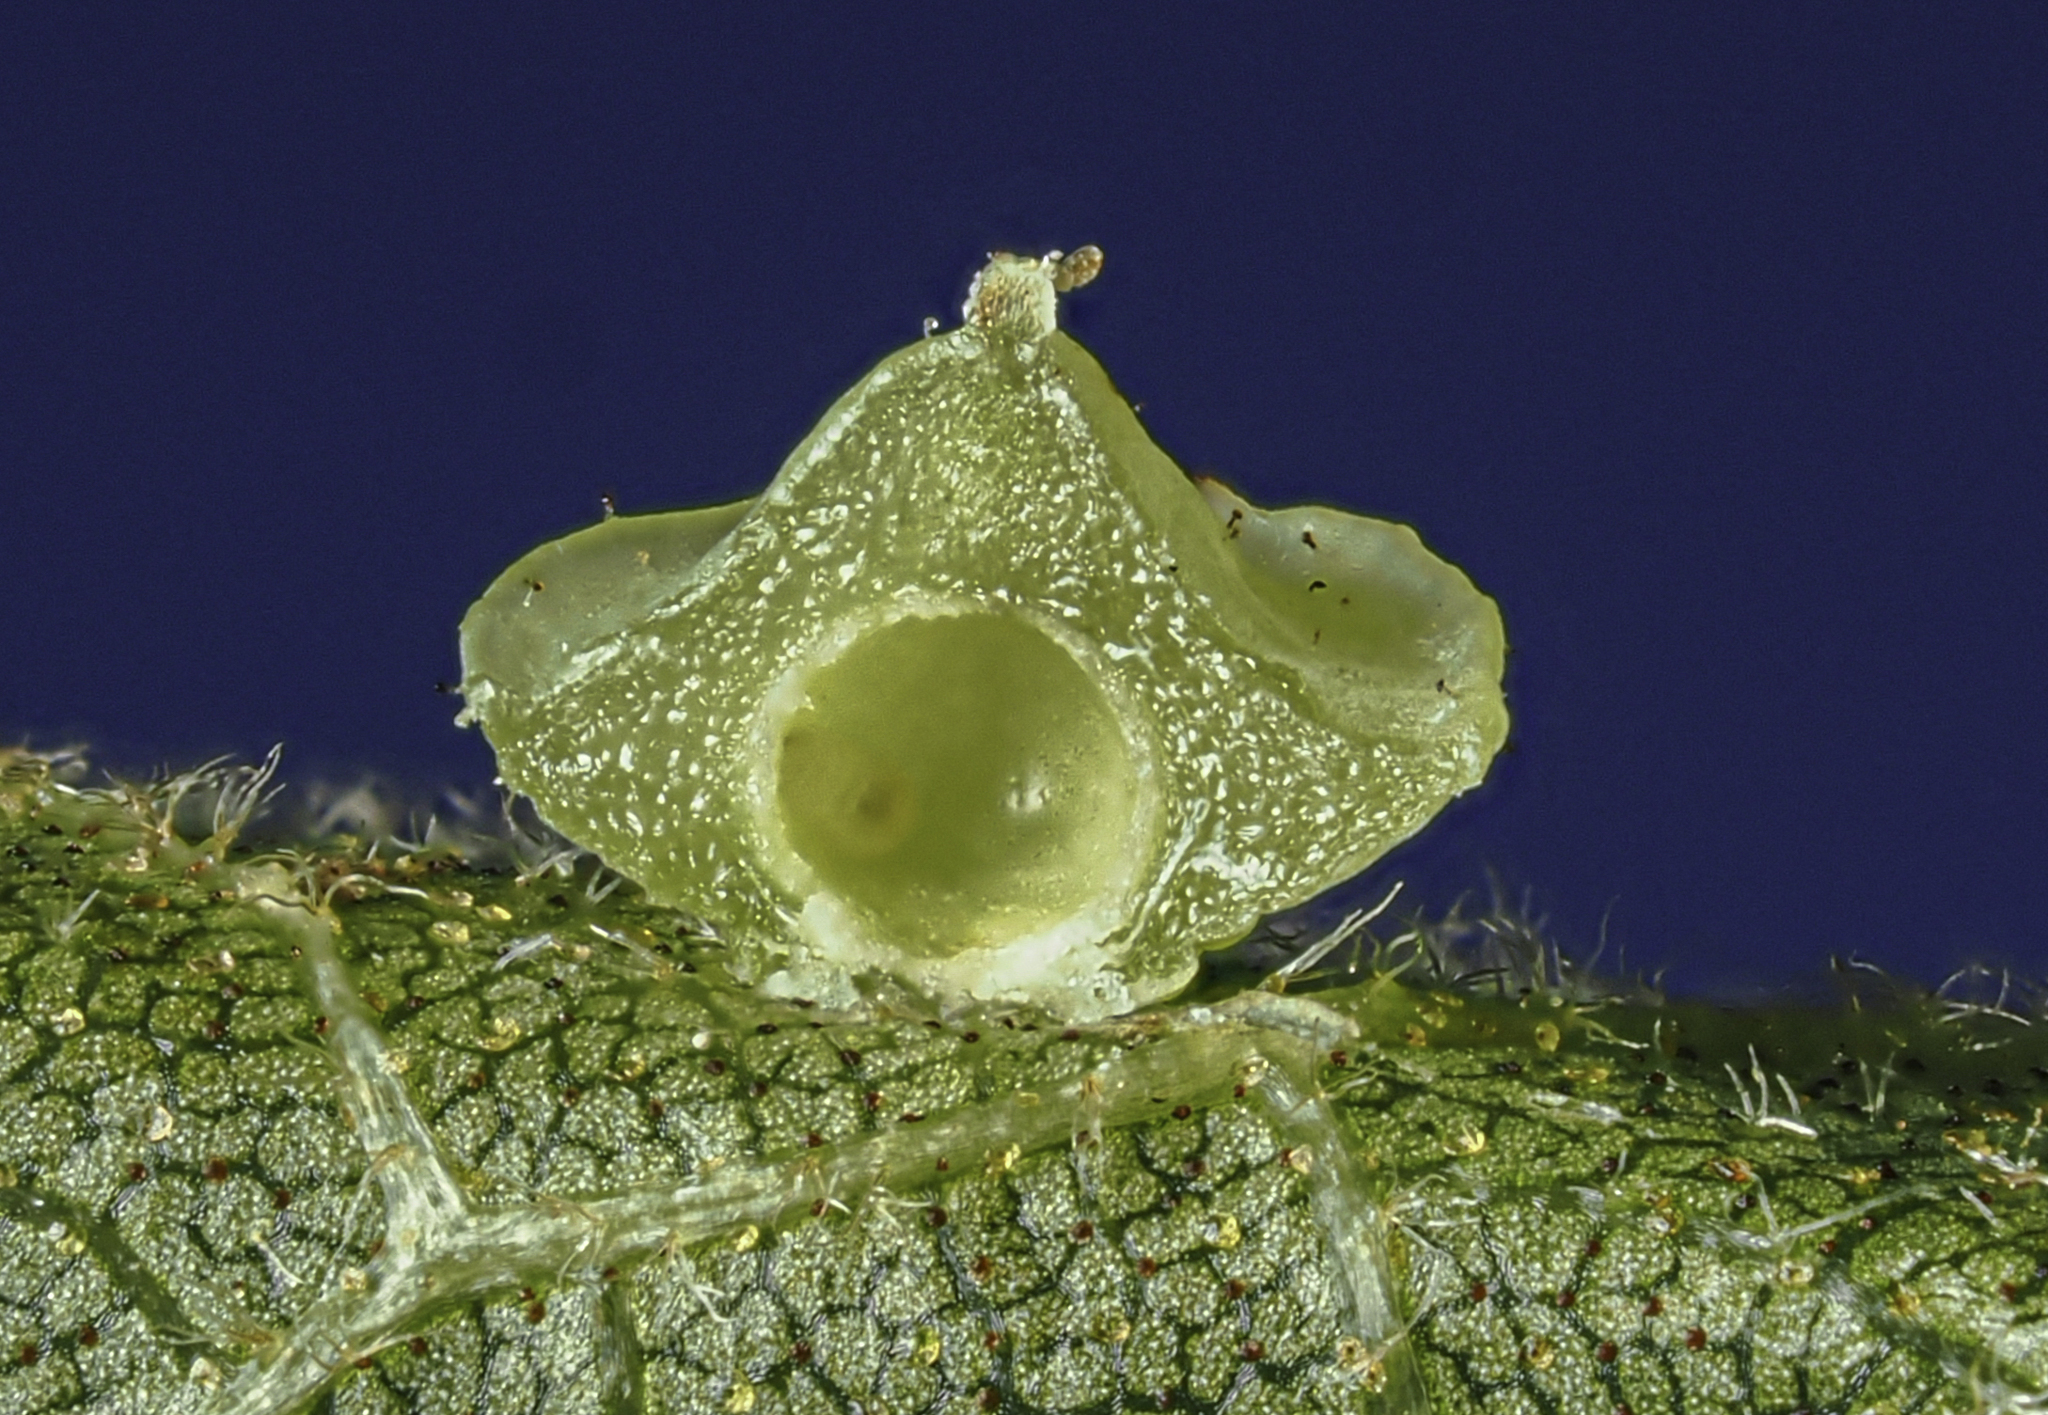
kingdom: Animalia
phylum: Arthropoda
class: Insecta
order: Diptera
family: Cecidomyiidae
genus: Caryomyia
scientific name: Caryomyia sanguinolenta
